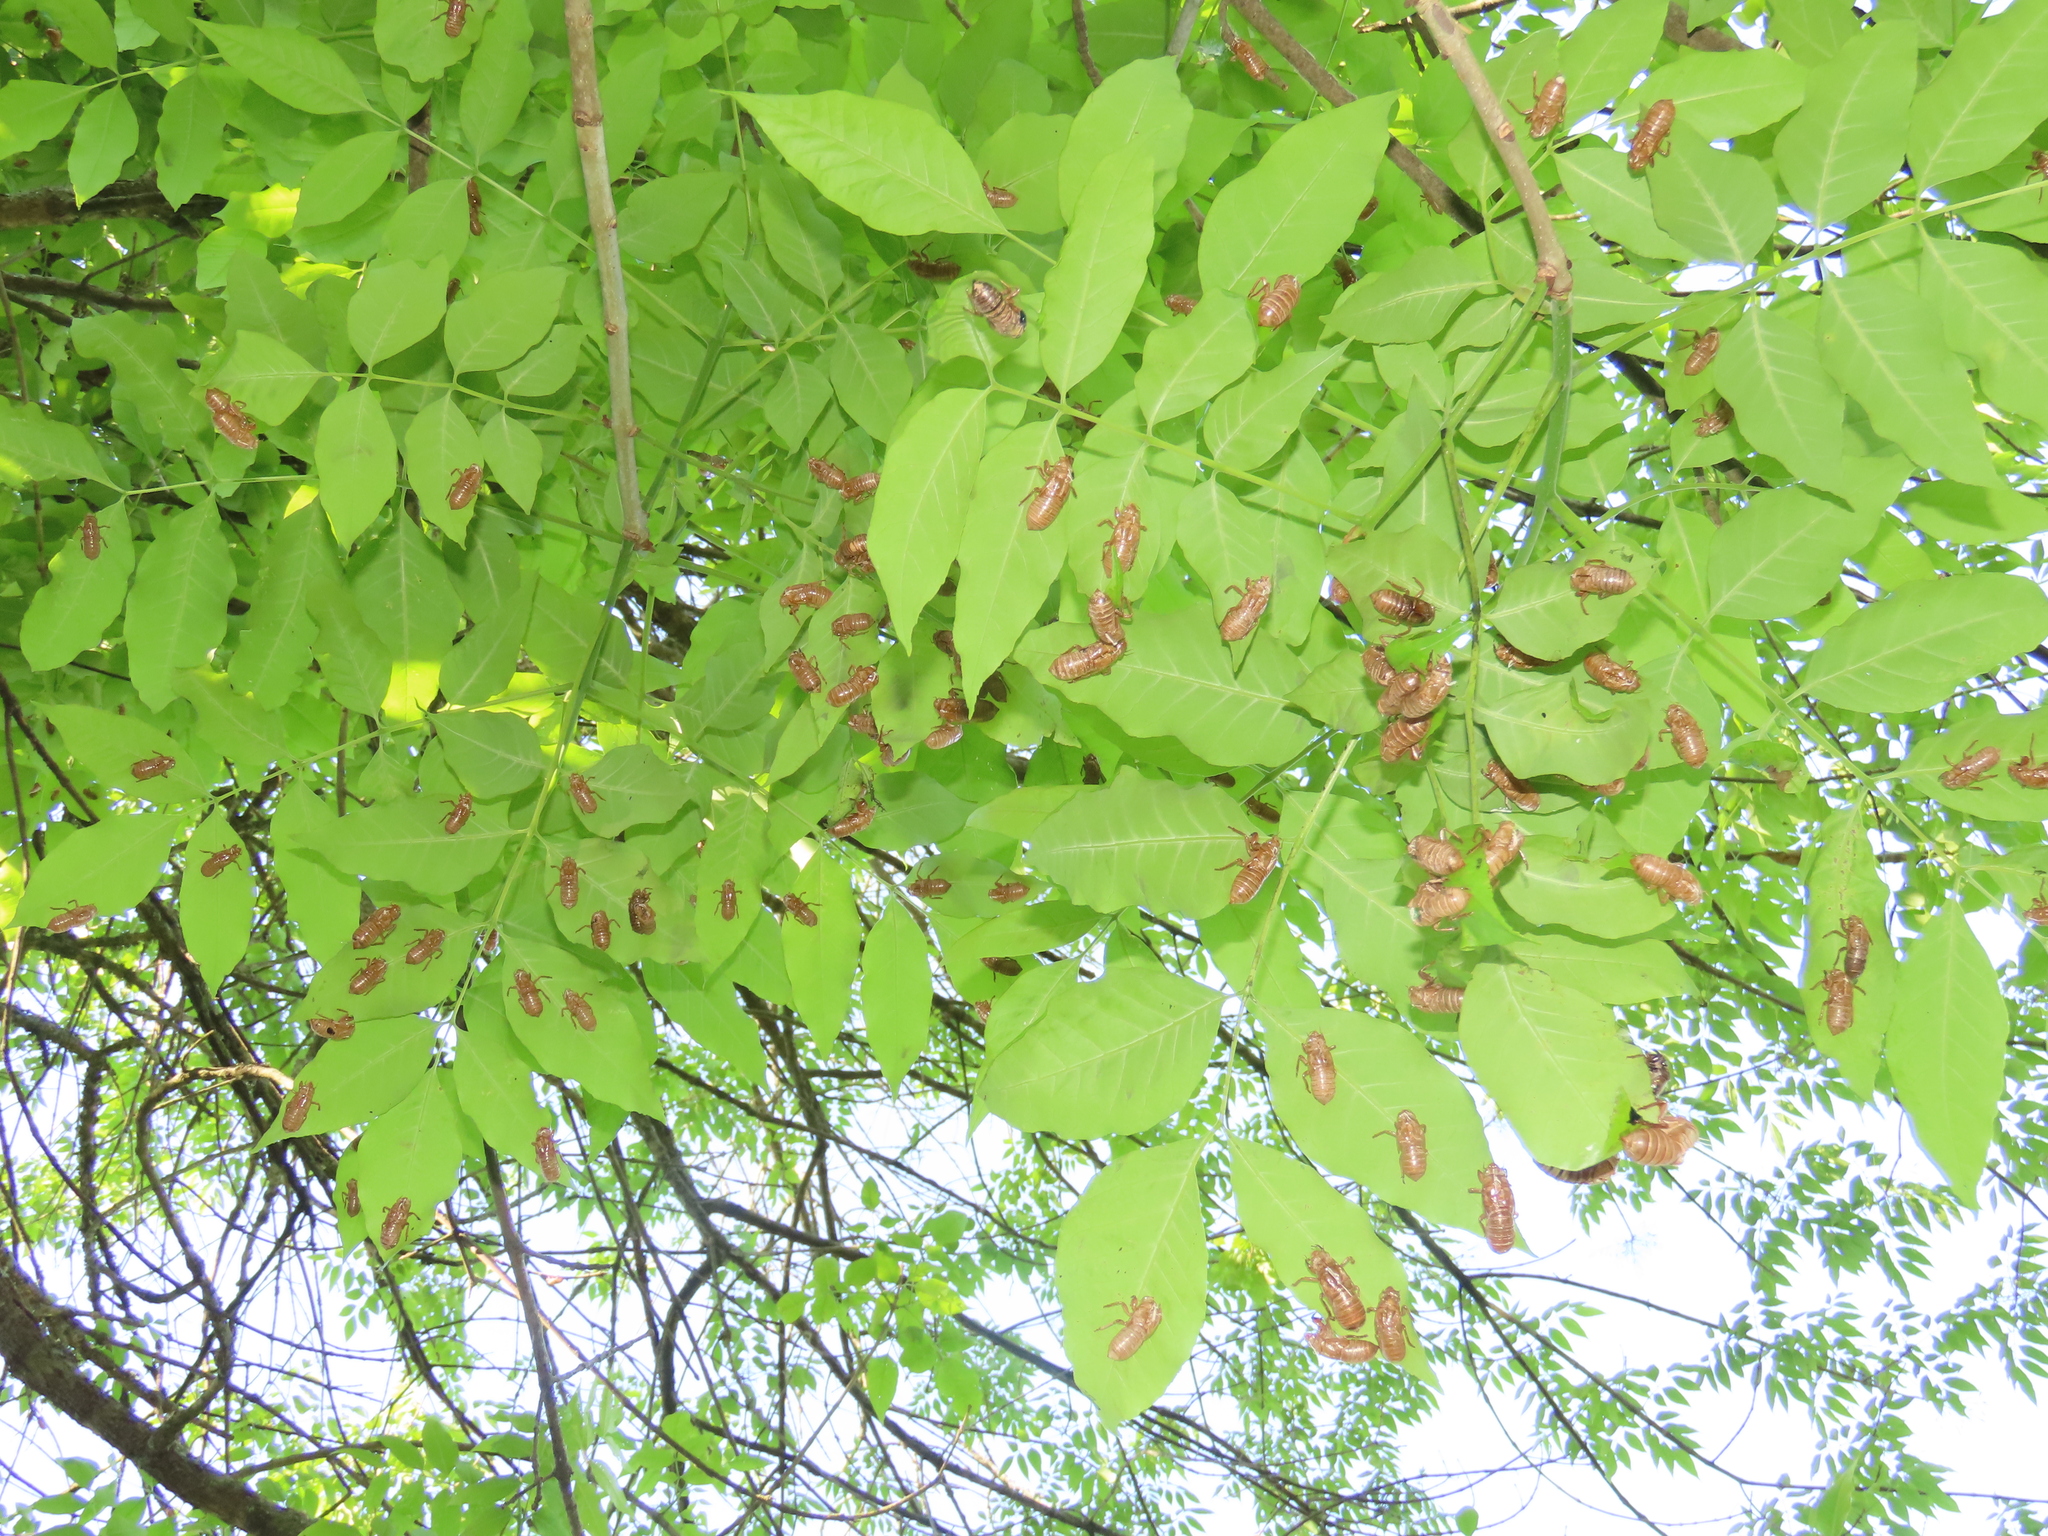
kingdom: Animalia
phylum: Arthropoda
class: Insecta
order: Hemiptera
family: Cicadidae
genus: Magicicada
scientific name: Magicicada
